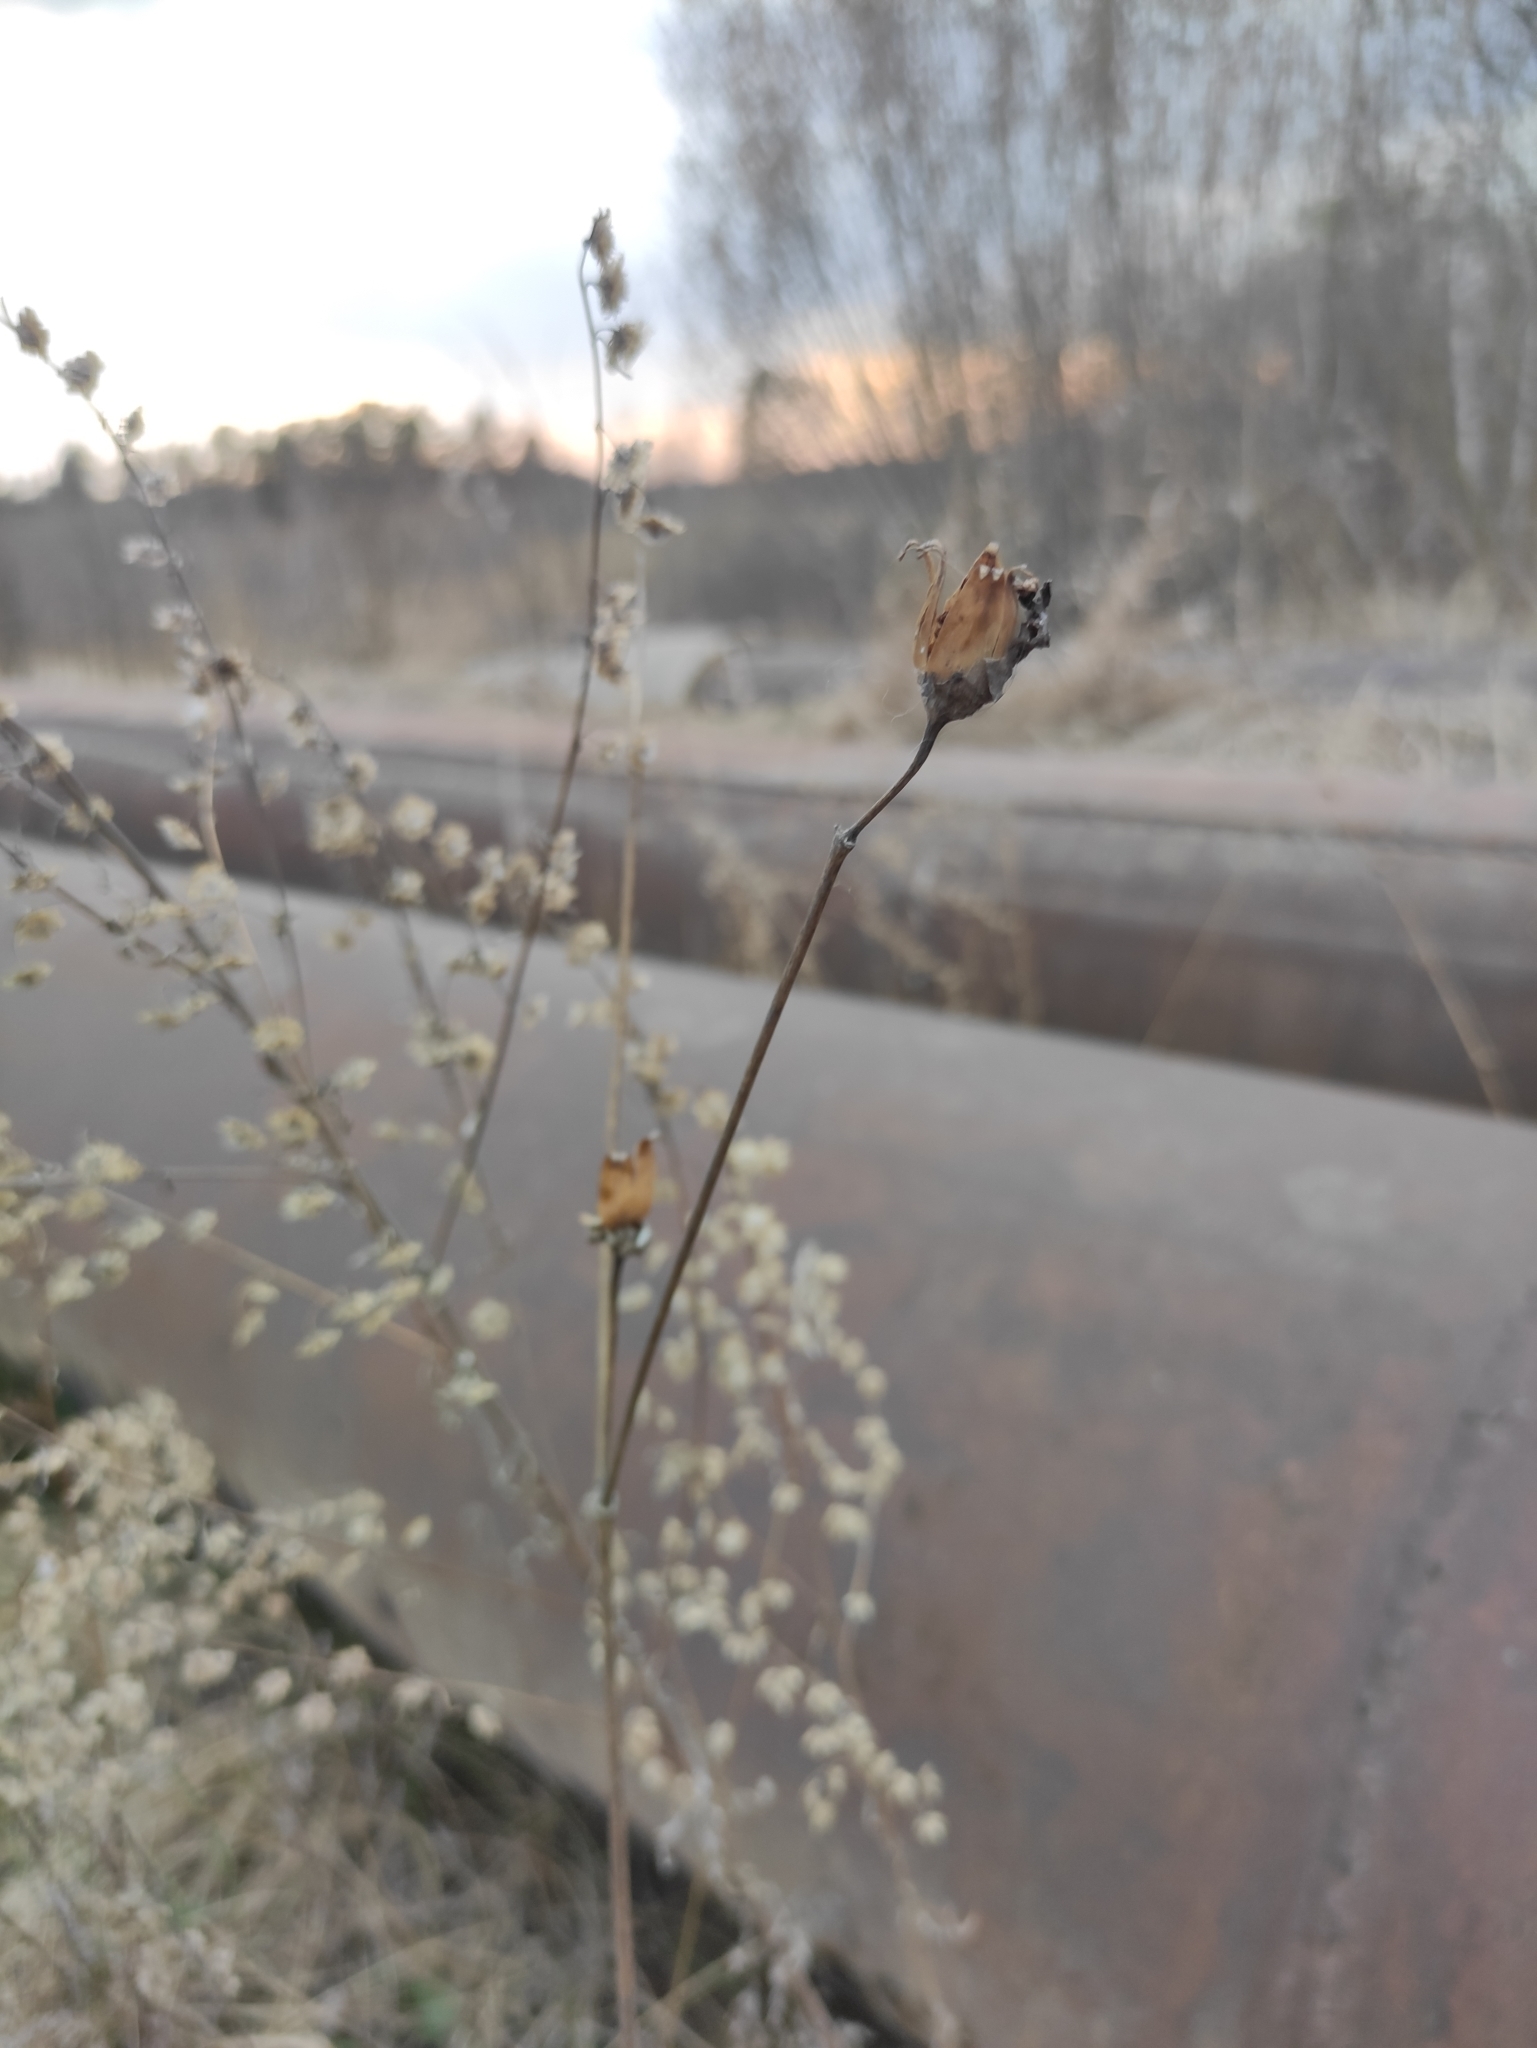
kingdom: Plantae
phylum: Tracheophyta
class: Magnoliopsida
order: Caryophyllales
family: Caryophyllaceae
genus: Silene
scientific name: Silene latifolia
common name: White campion
